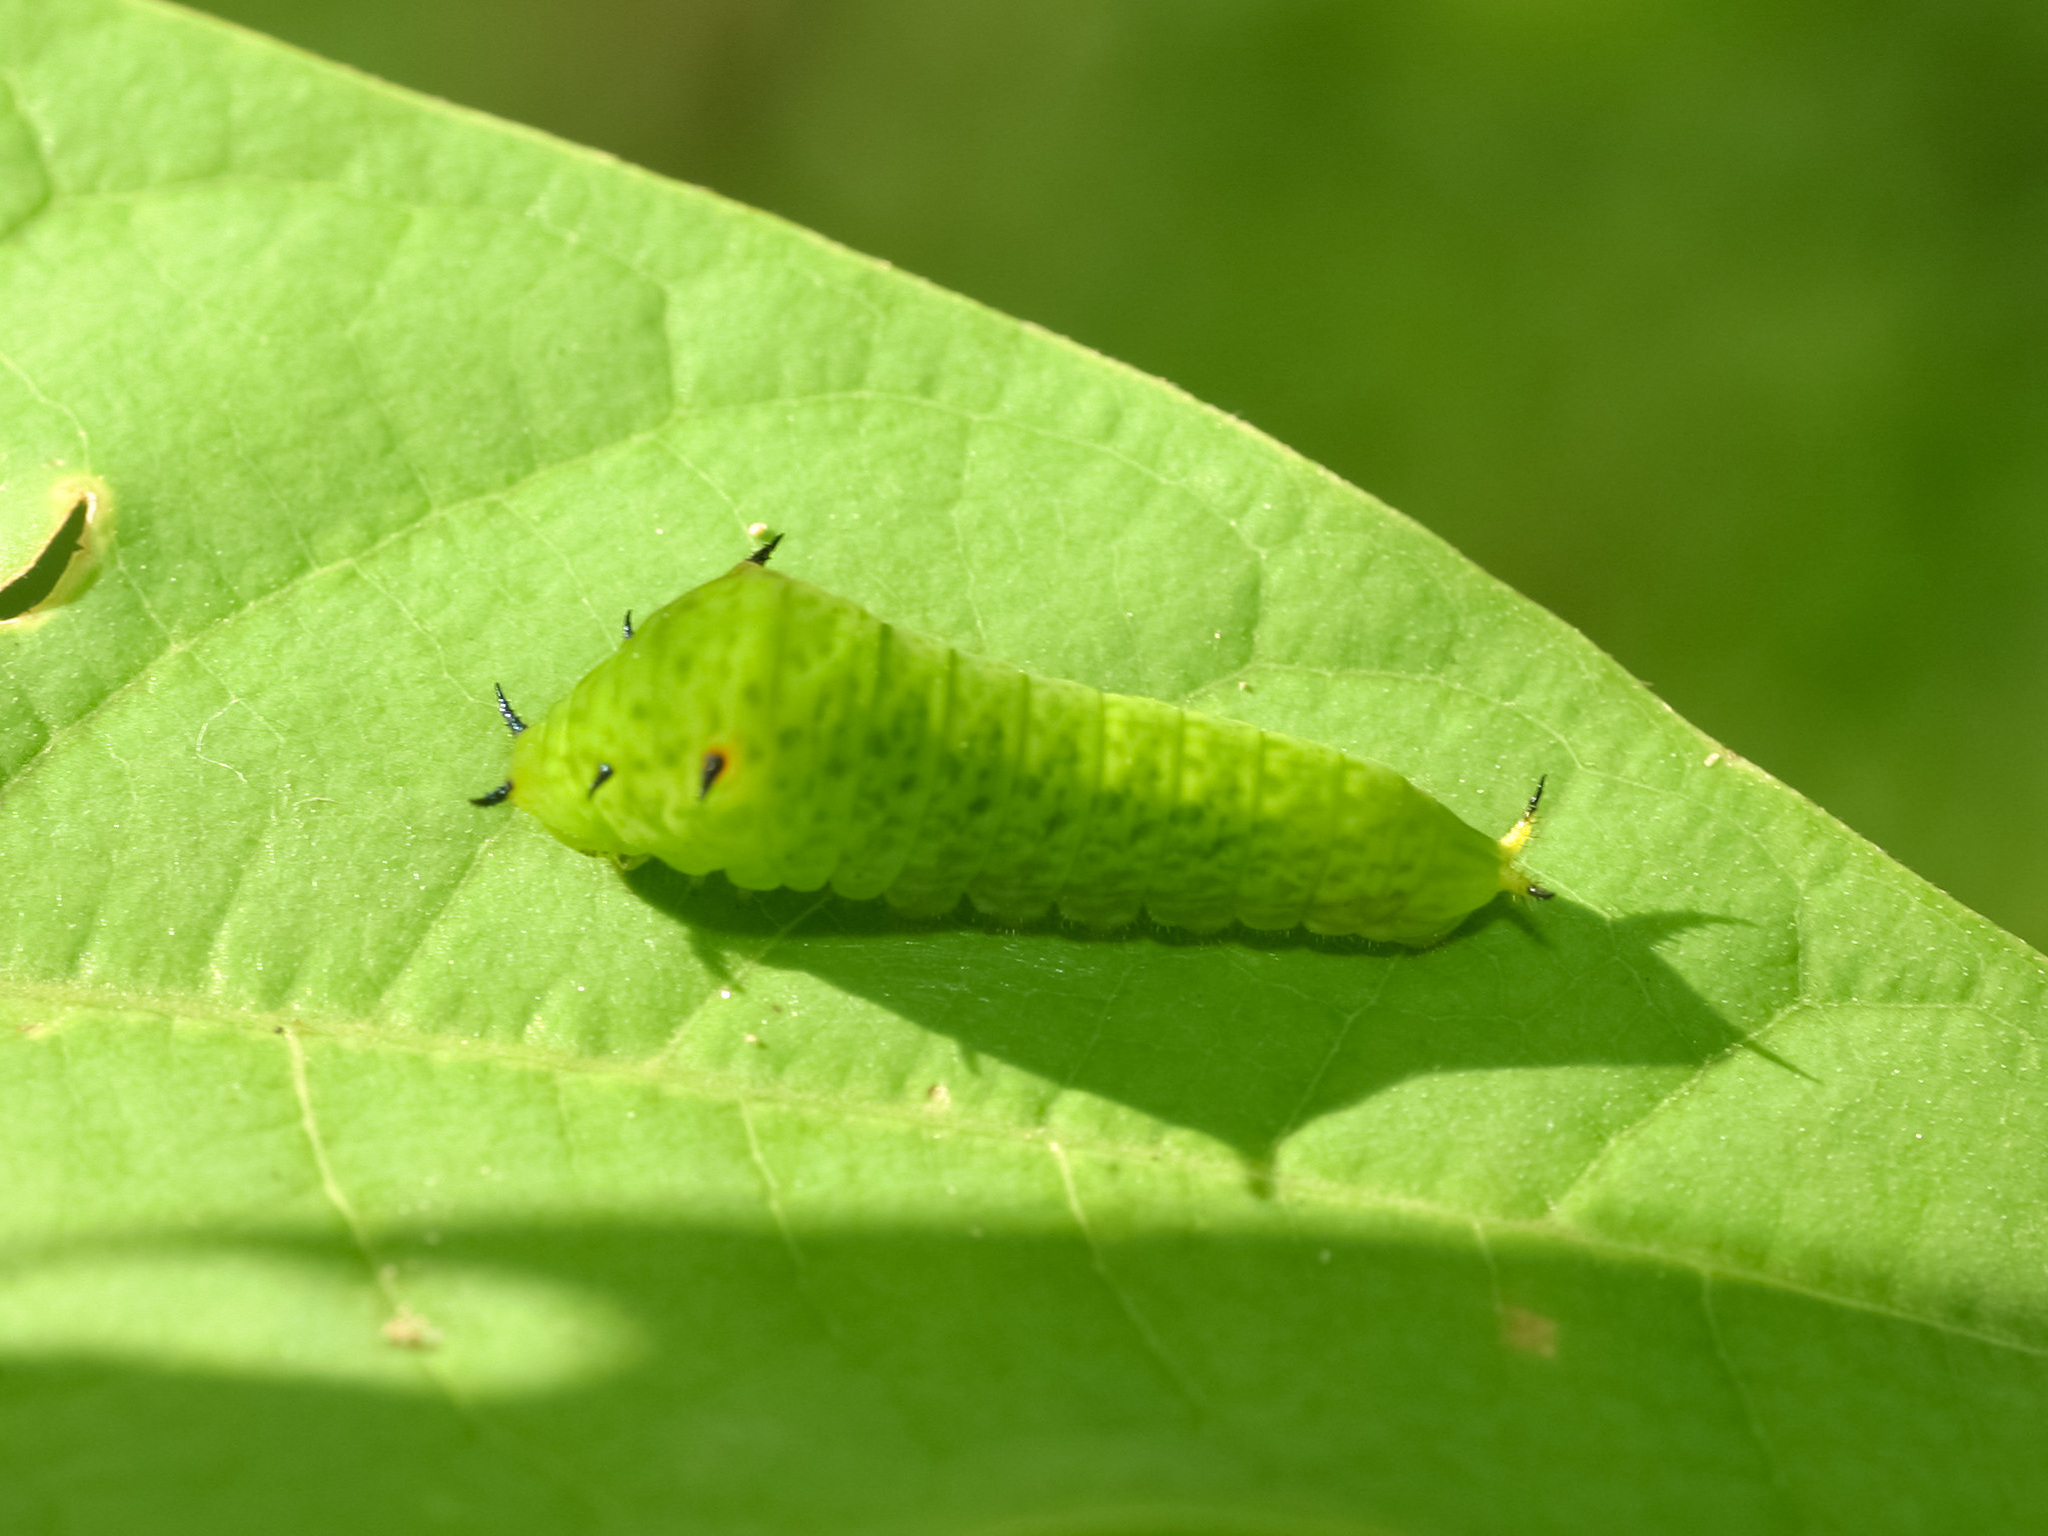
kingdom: Animalia
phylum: Arthropoda
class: Insecta
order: Lepidoptera
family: Papilionidae
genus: Graphium
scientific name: Graphium agamemnon
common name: Tailed jay
